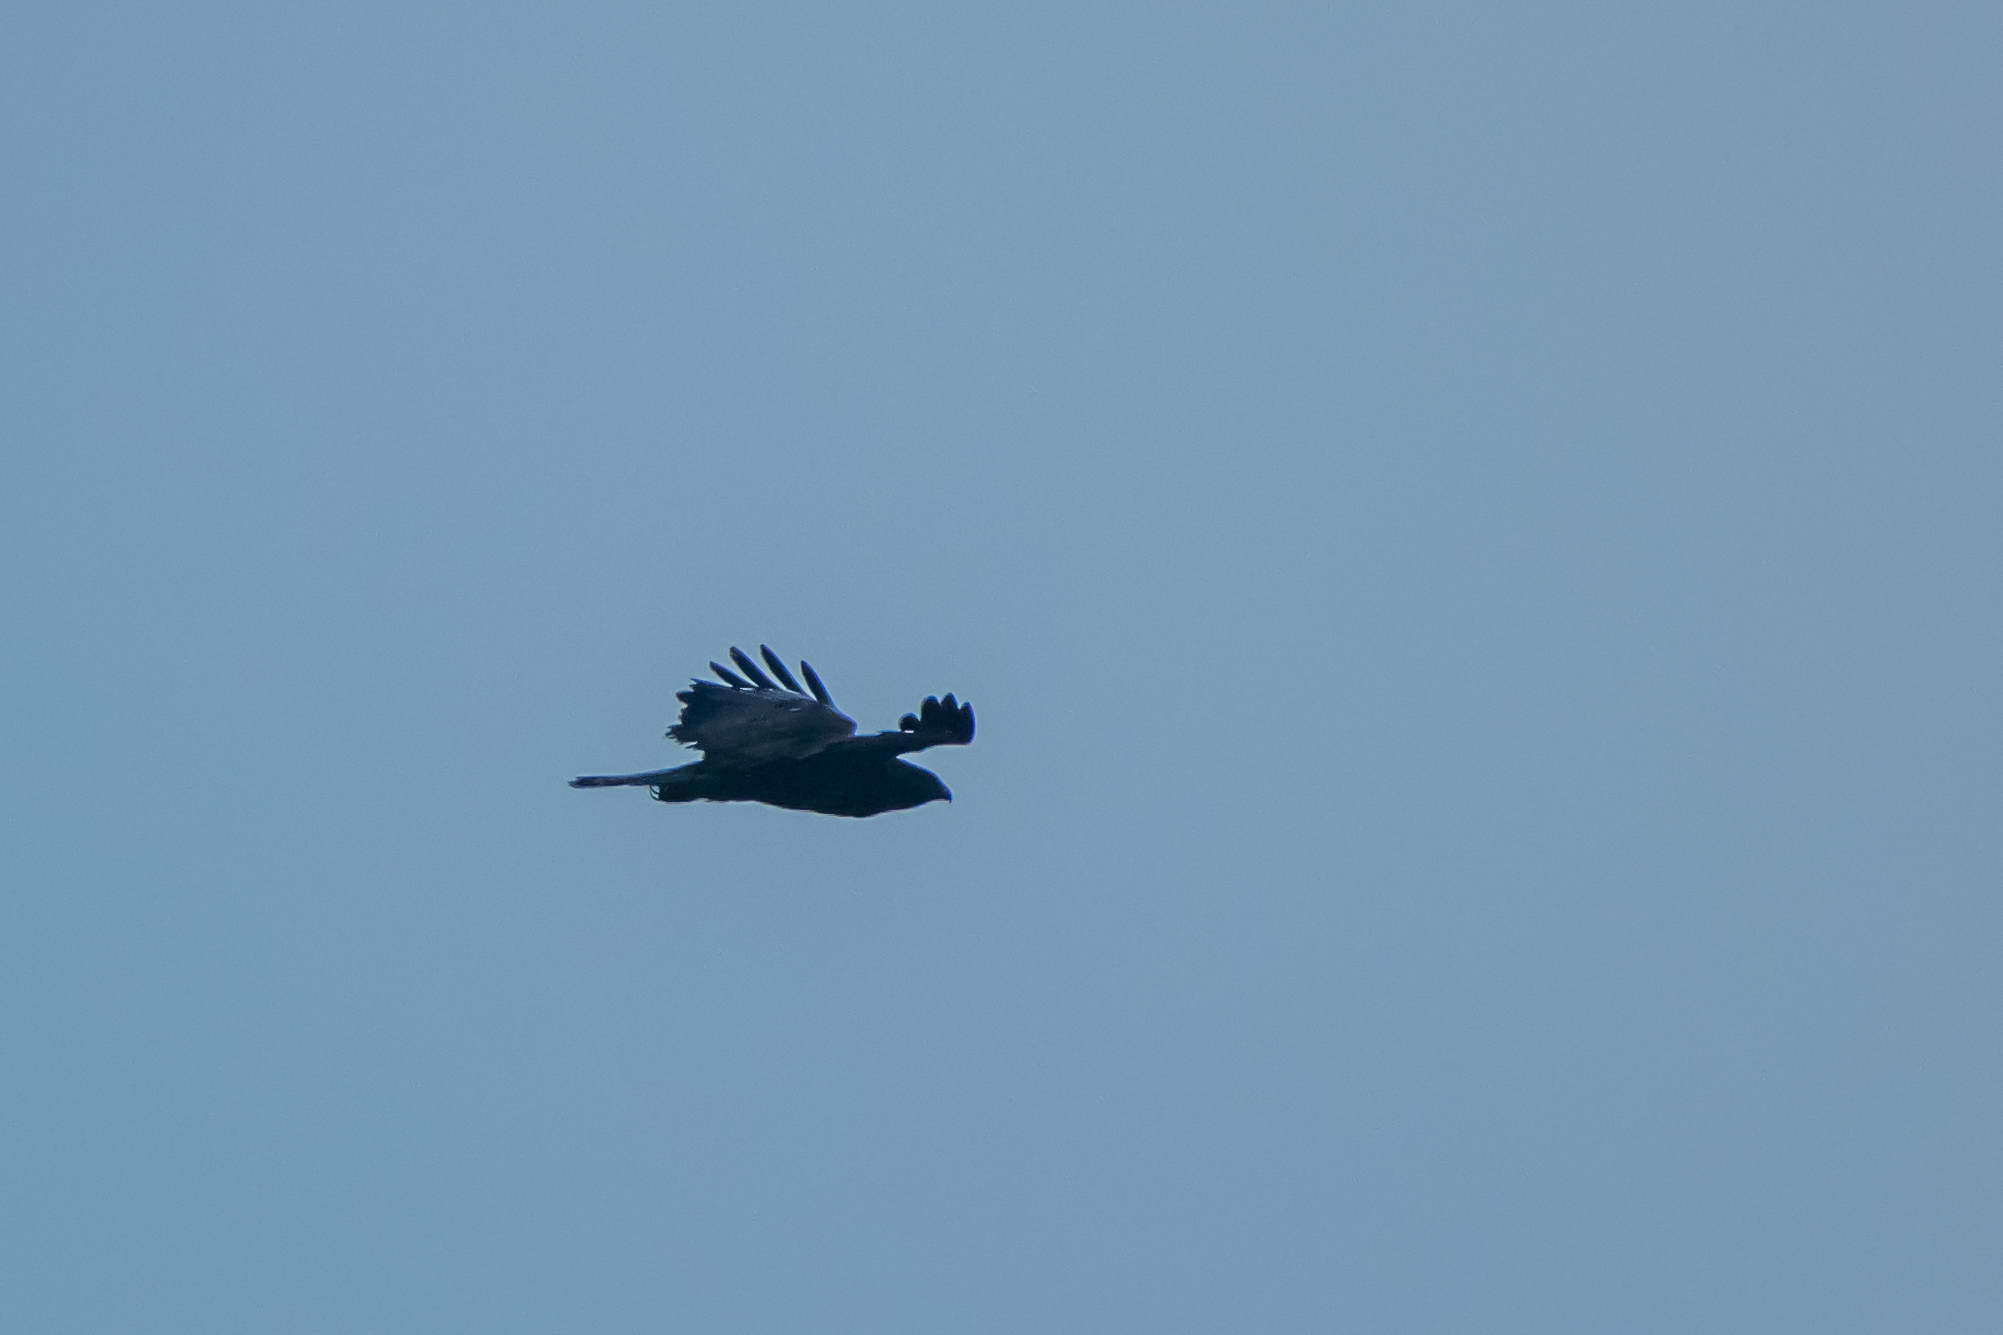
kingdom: Animalia
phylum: Chordata
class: Aves
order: Accipitriformes
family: Accipitridae
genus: Buteo
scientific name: Buteo buteo
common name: Common buzzard
